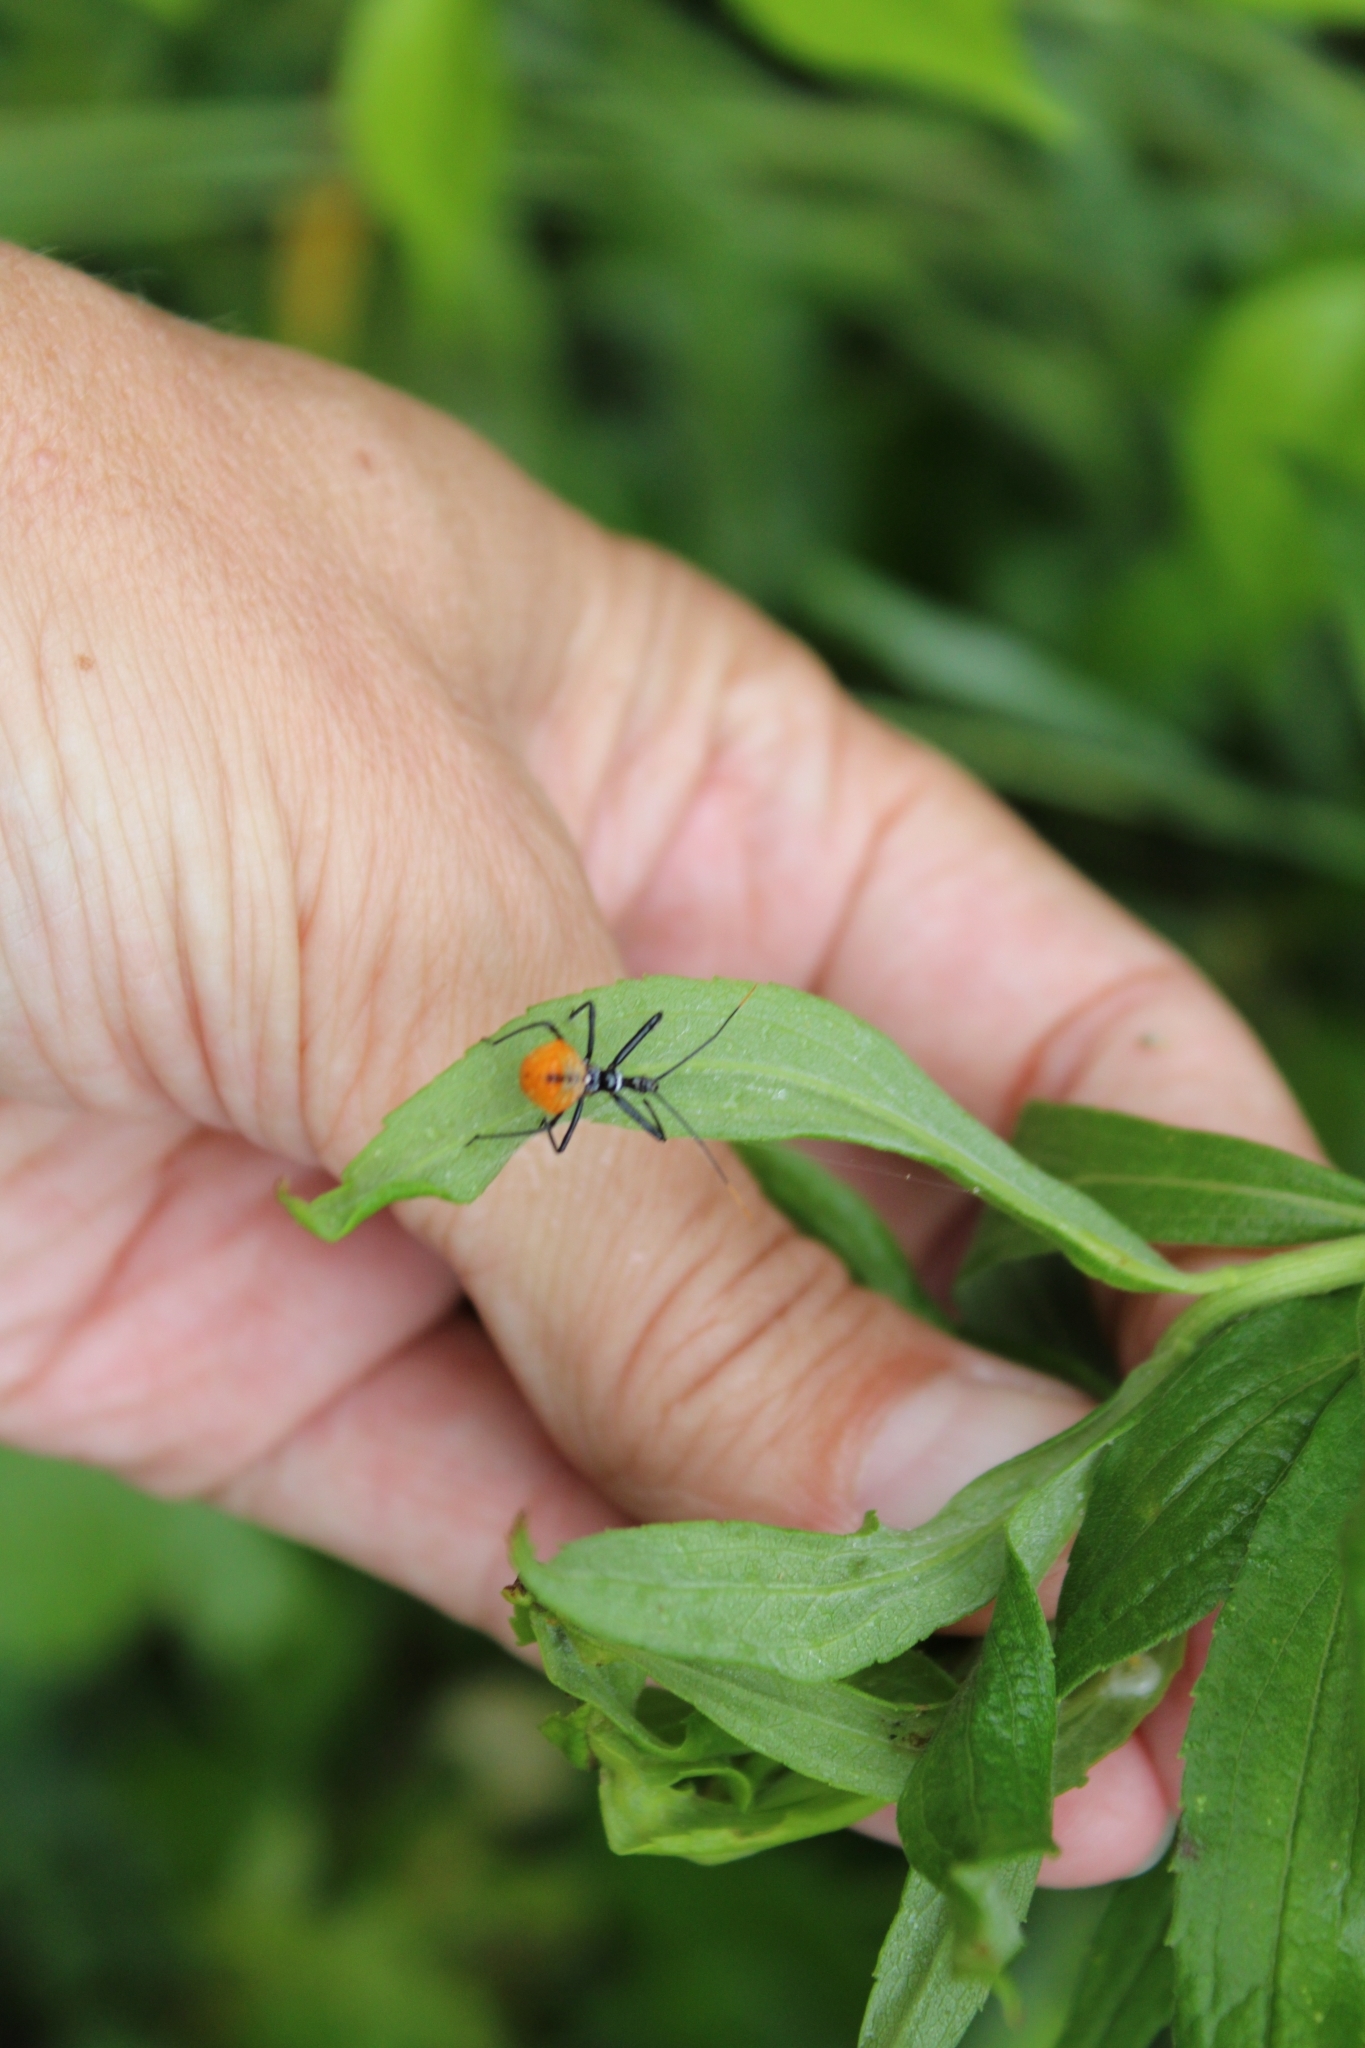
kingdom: Animalia
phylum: Arthropoda
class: Insecta
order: Hemiptera
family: Reduviidae
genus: Arilus
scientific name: Arilus cristatus
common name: North american wheel bug
